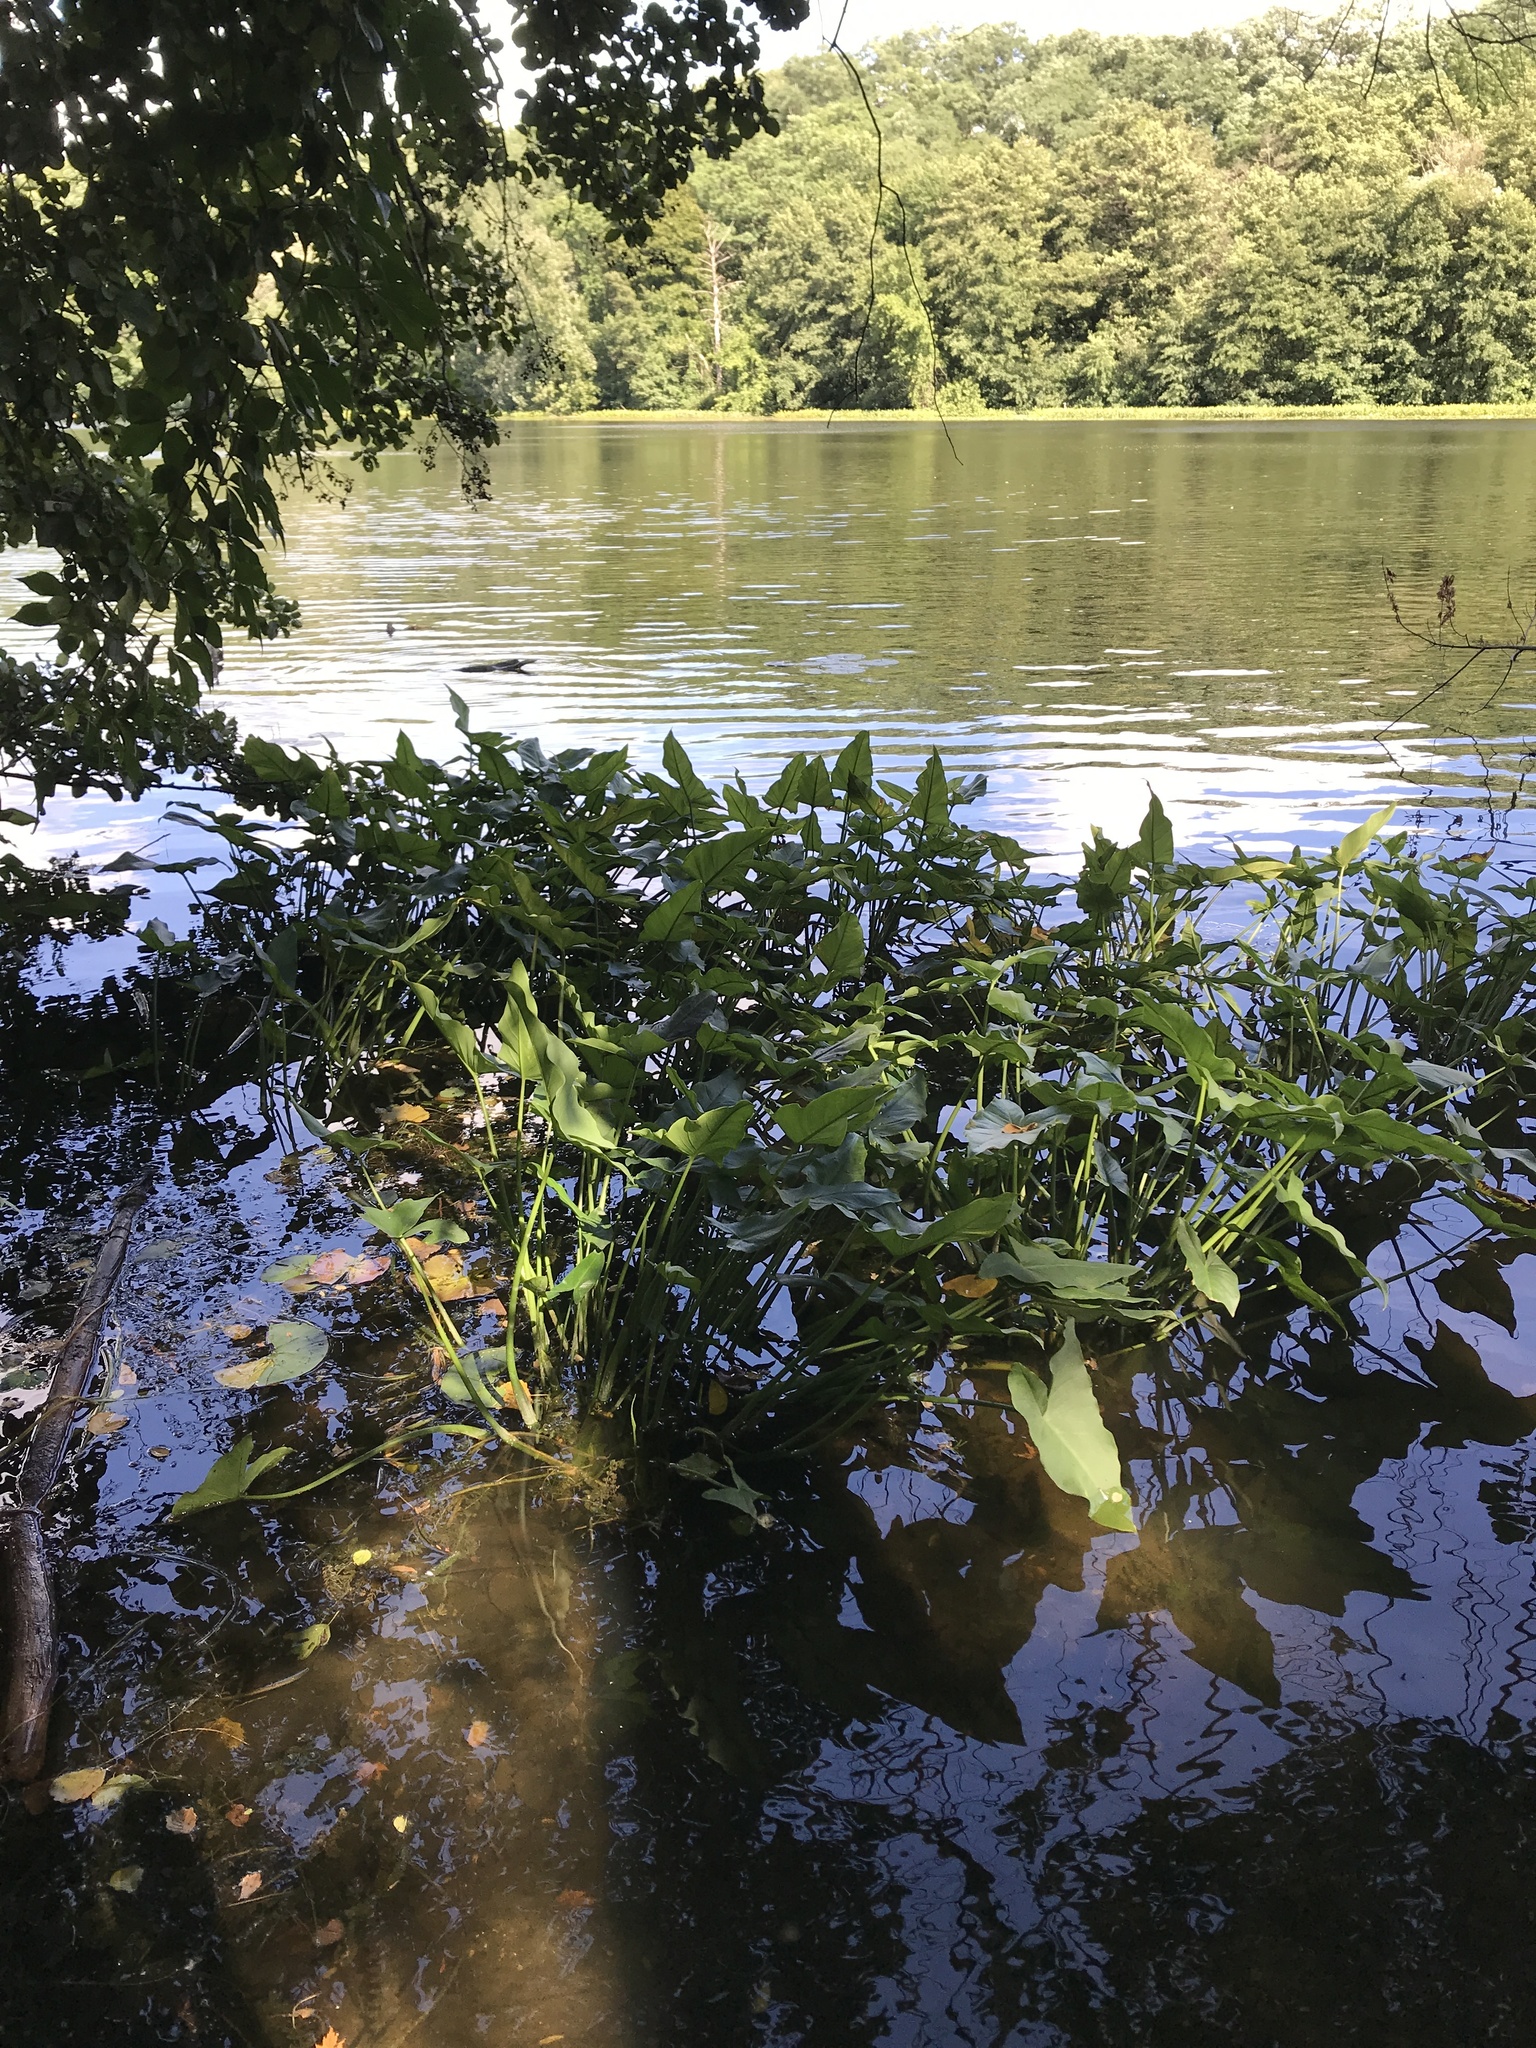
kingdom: Plantae
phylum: Tracheophyta
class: Liliopsida
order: Alismatales
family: Araceae
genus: Peltandra
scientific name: Peltandra virginica
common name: Arrow arum
